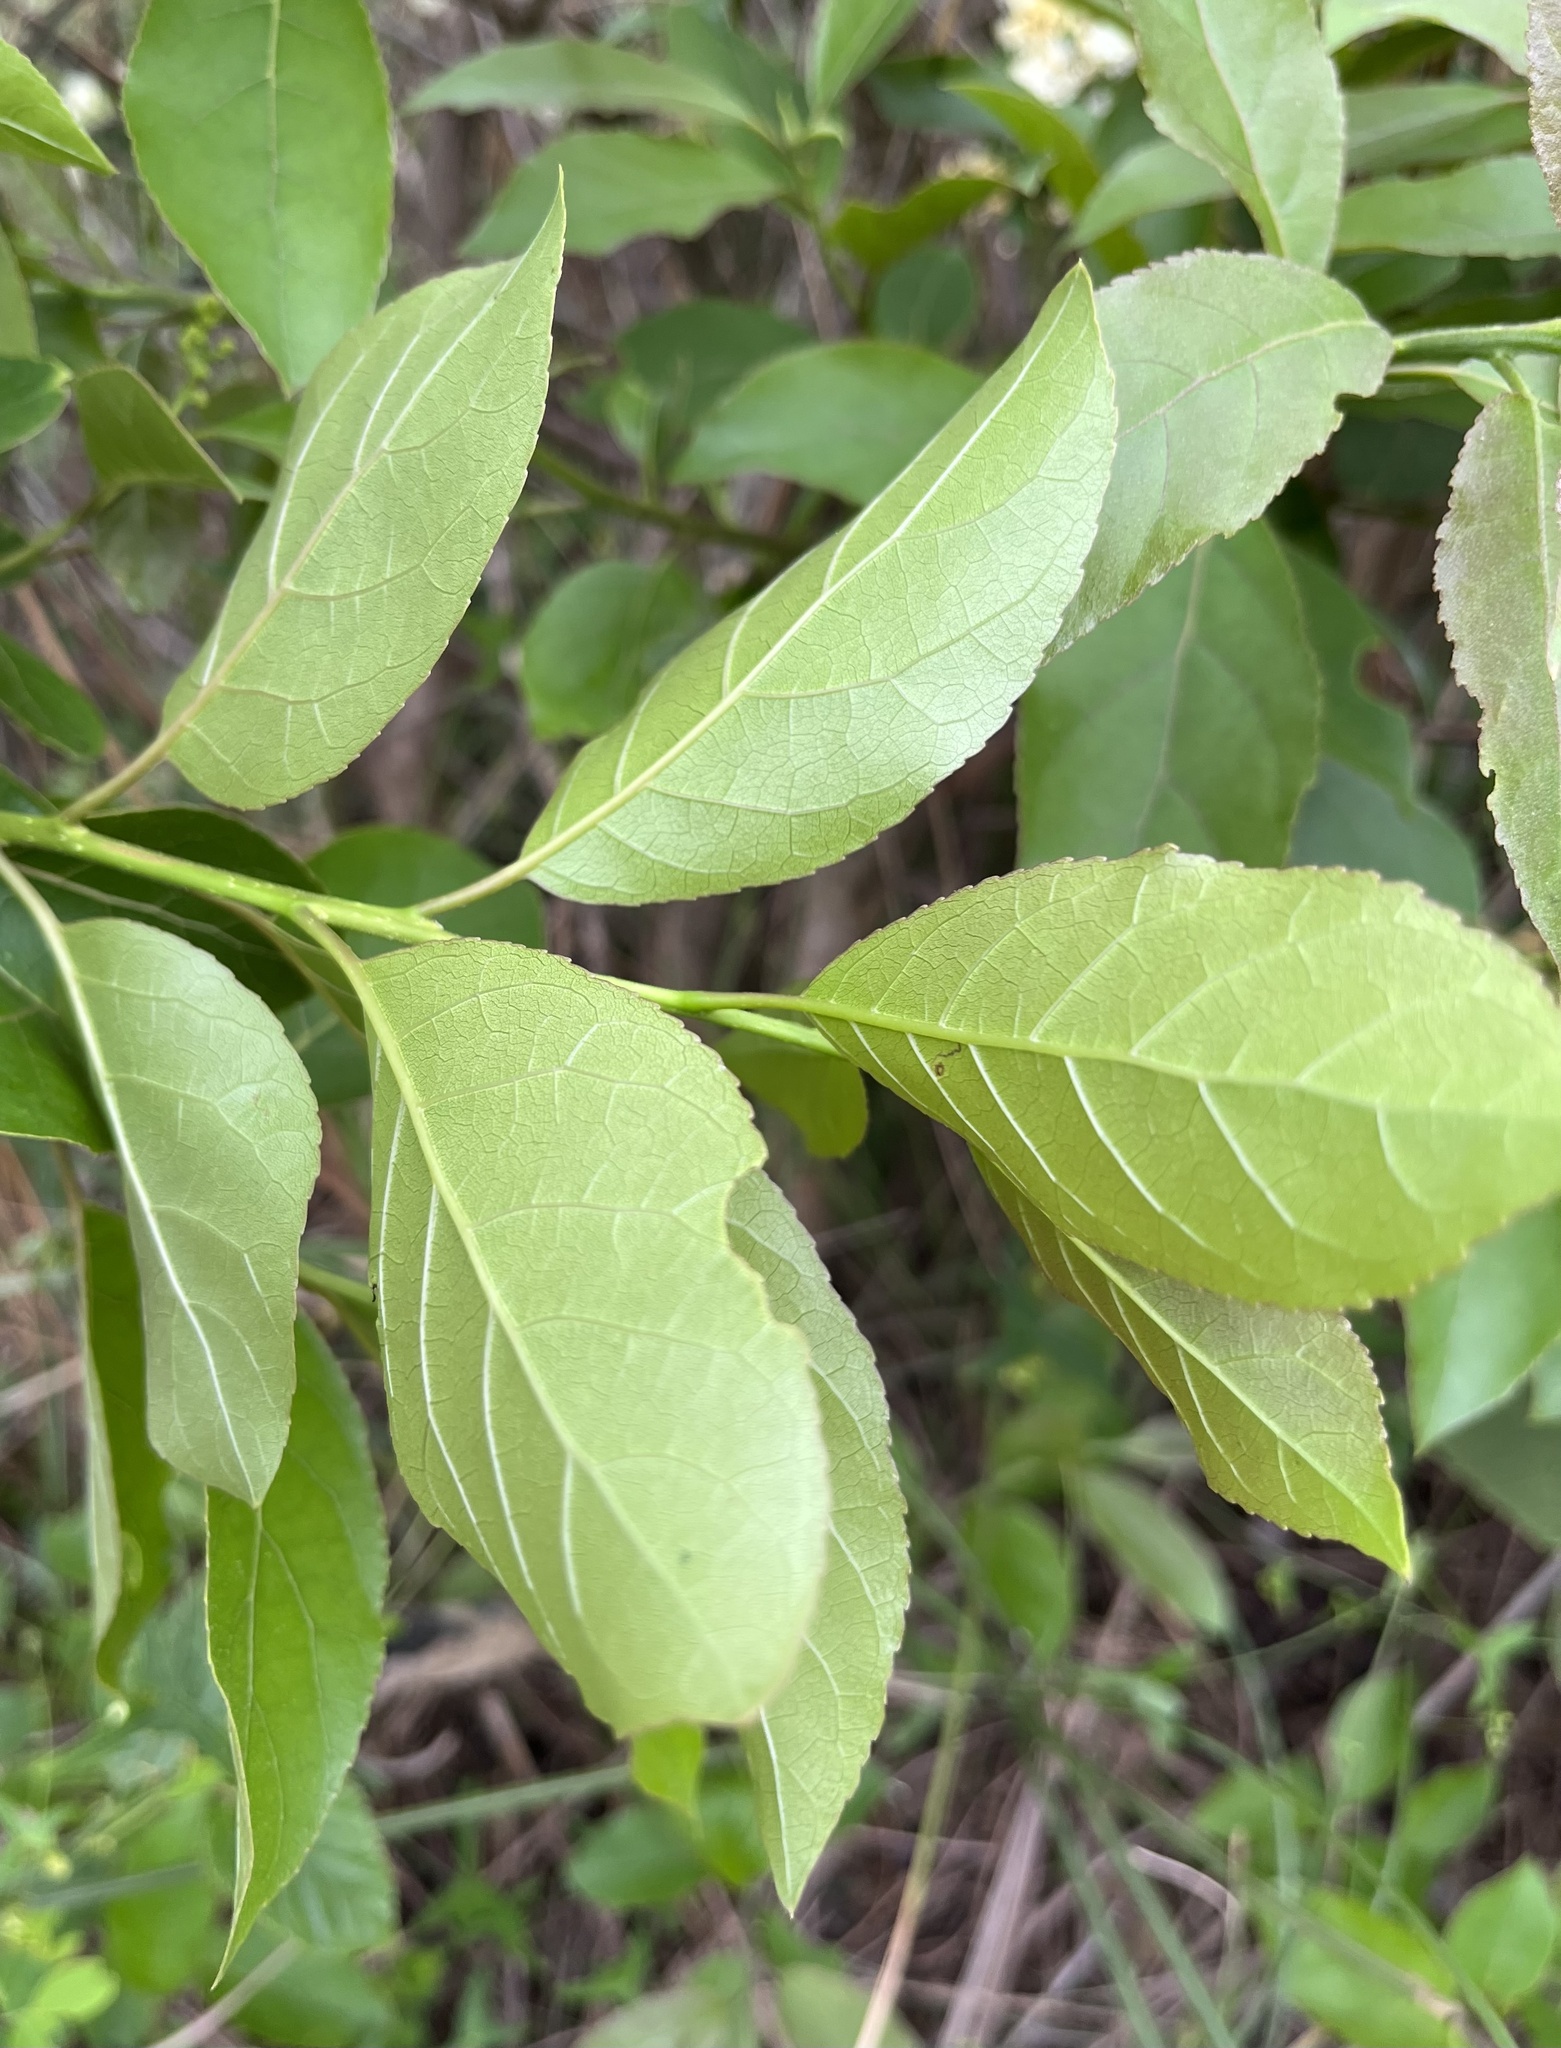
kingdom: Plantae
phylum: Tracheophyta
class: Magnoliopsida
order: Boraginales
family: Ehretiaceae
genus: Ehretia
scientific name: Ehretia acuminata
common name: Kodo wood
